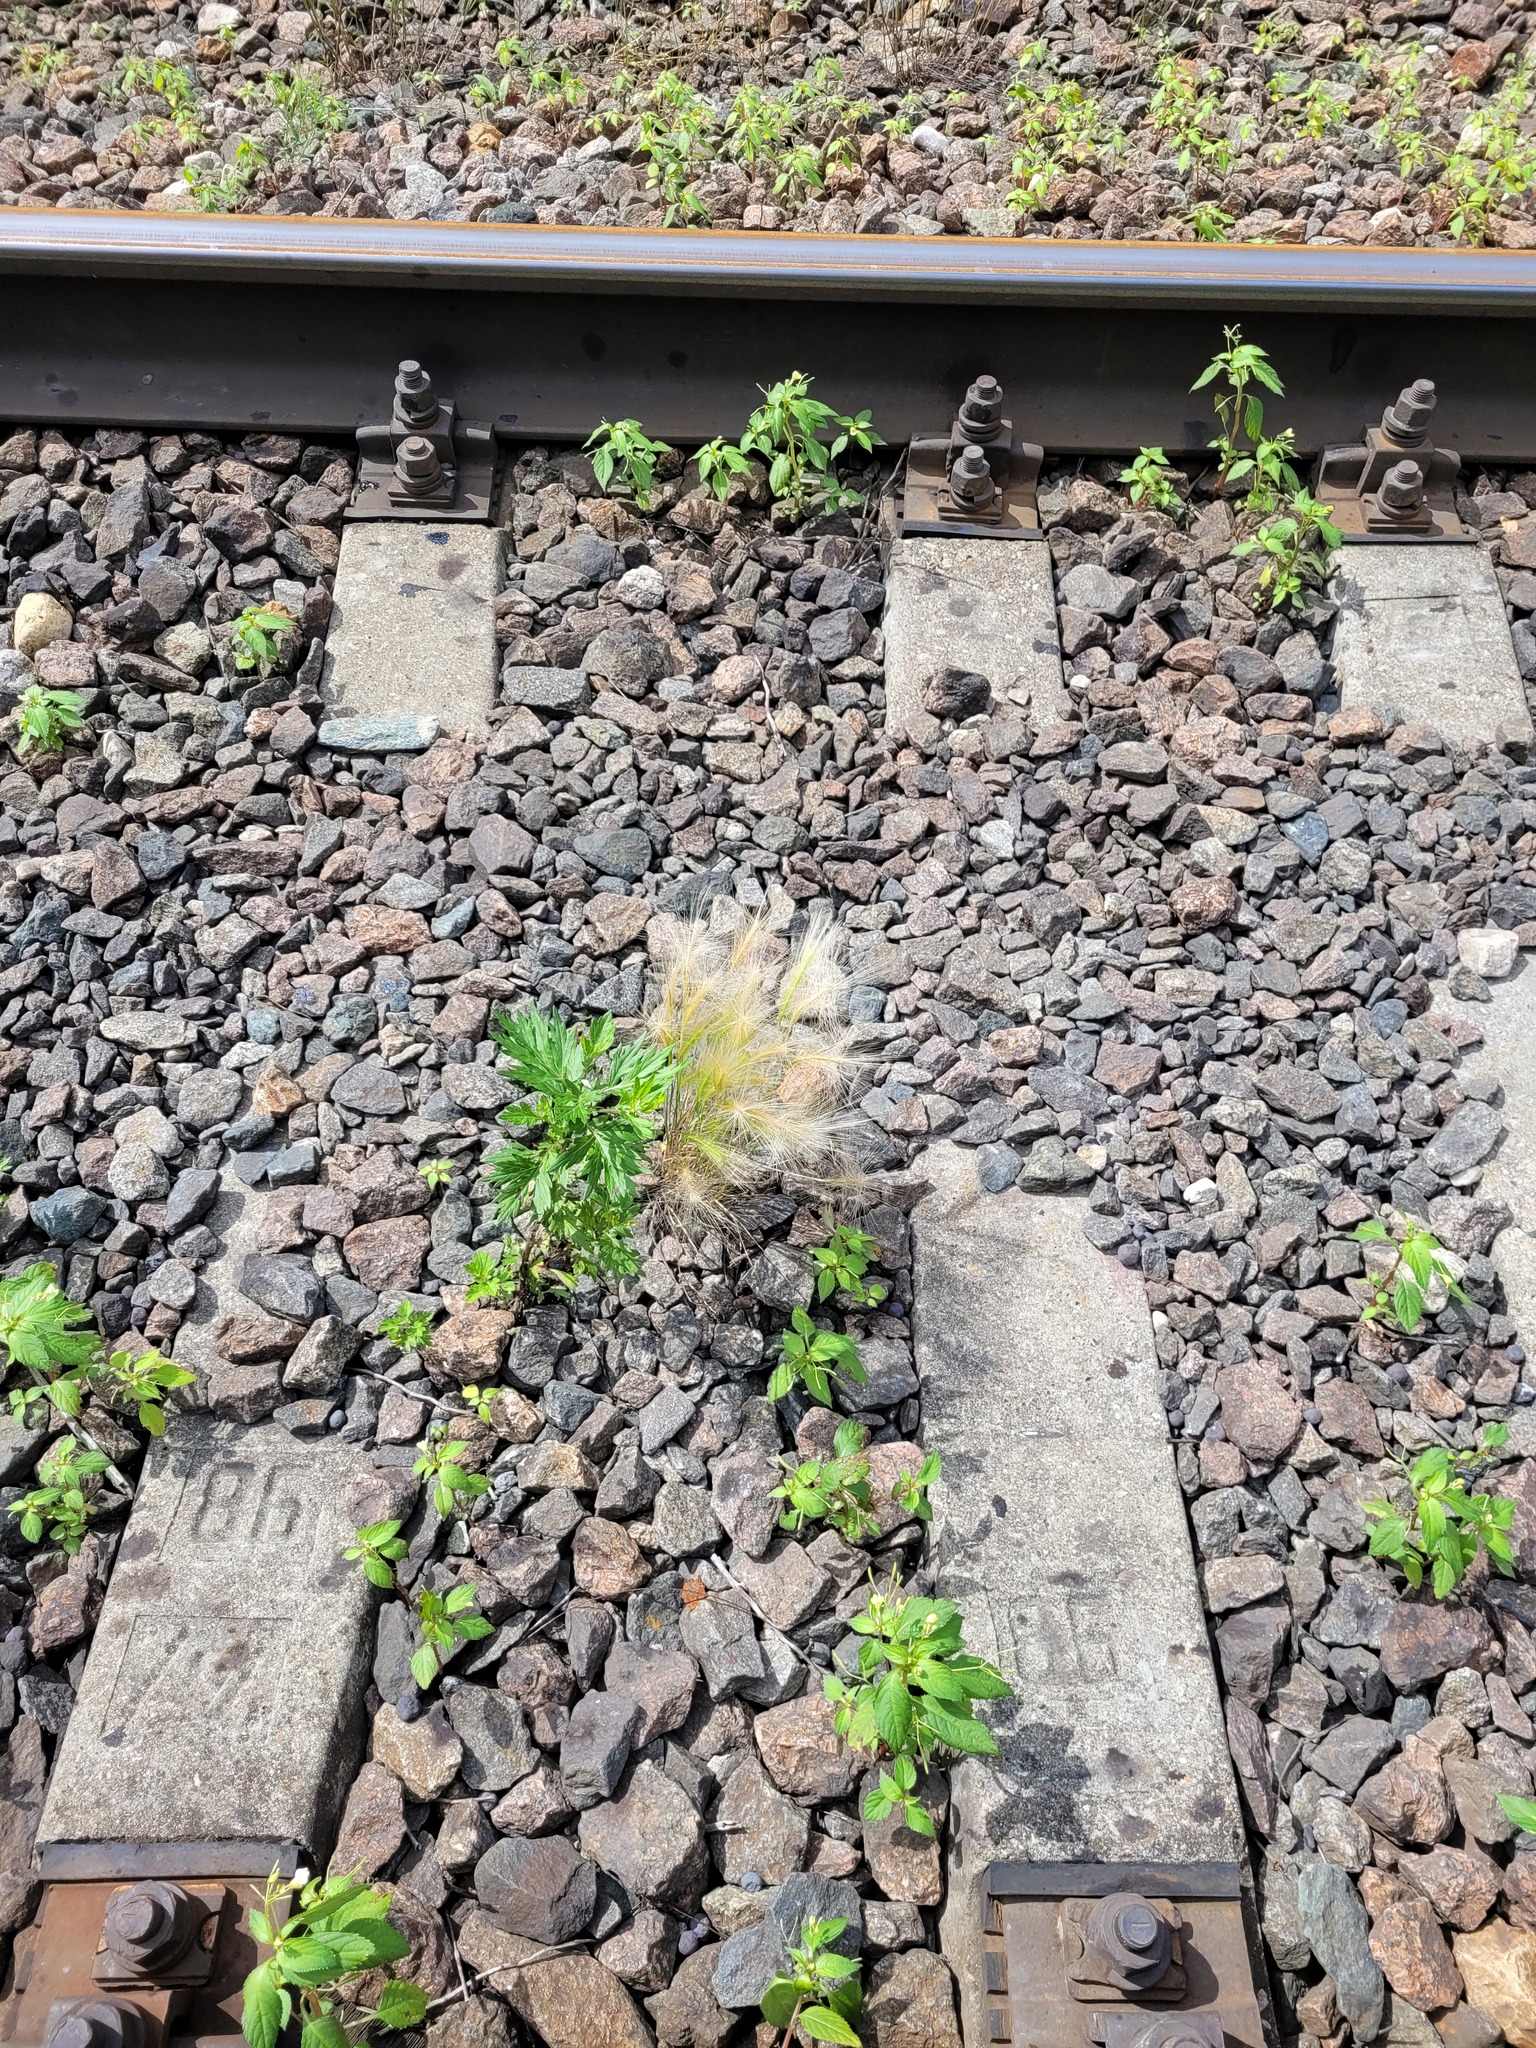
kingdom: Plantae
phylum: Tracheophyta
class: Liliopsida
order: Poales
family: Poaceae
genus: Hordeum
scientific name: Hordeum jubatum
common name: Foxtail barley
